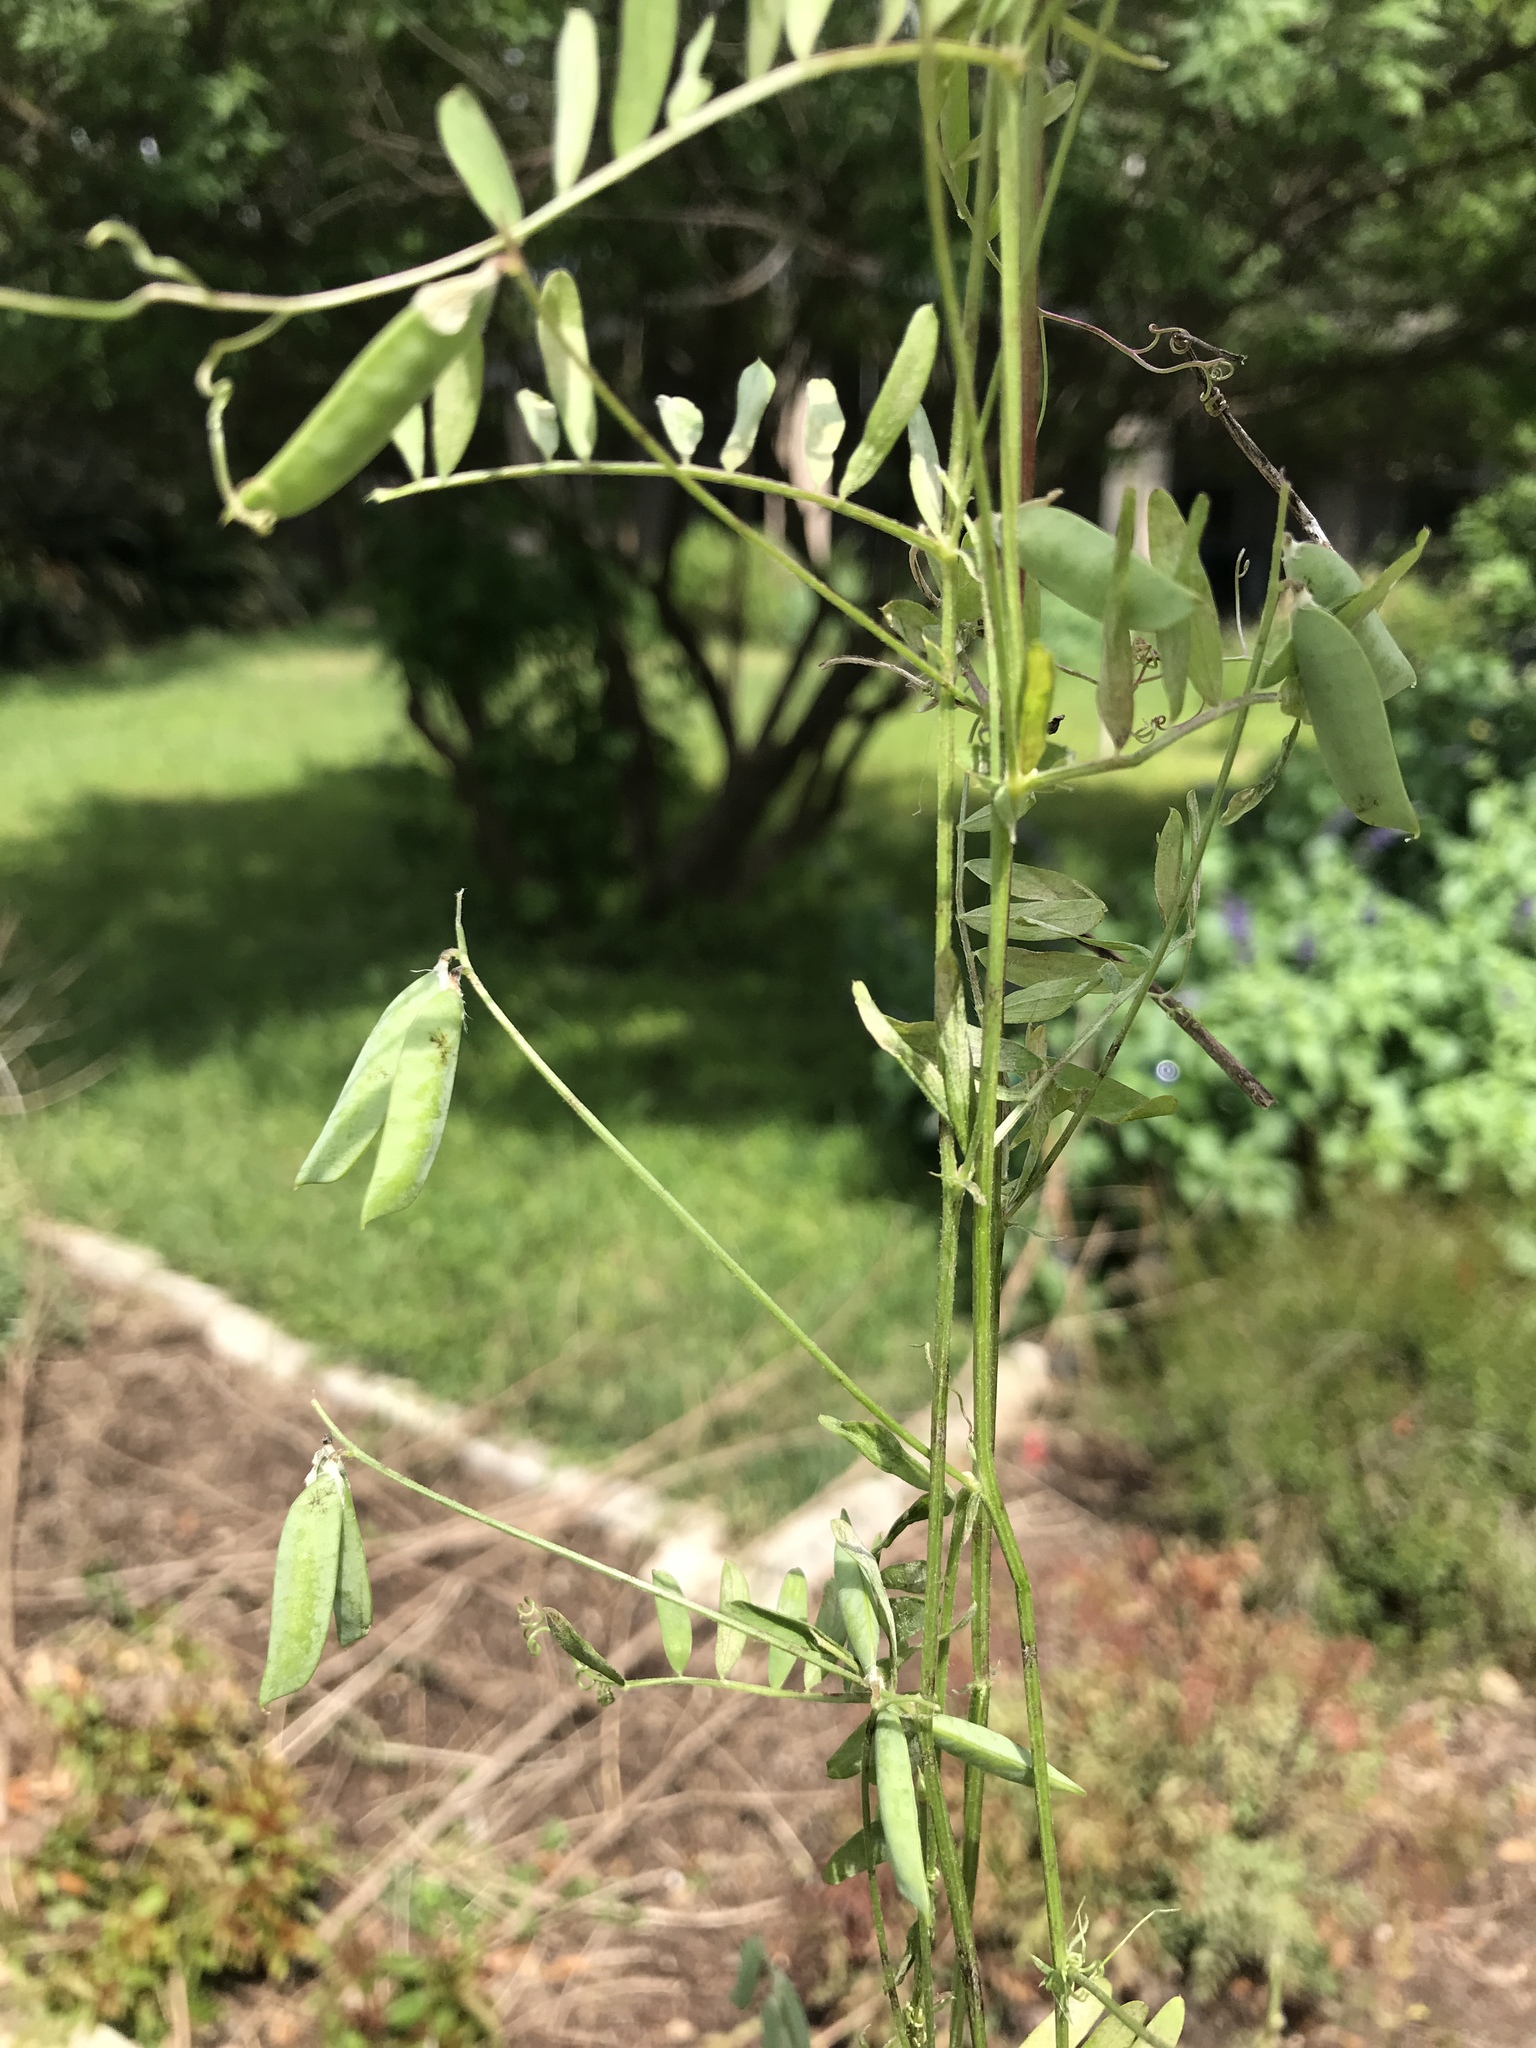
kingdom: Plantae
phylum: Tracheophyta
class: Magnoliopsida
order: Fabales
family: Fabaceae
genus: Vicia
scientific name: Vicia ludoviciana
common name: Louisiana vetch
